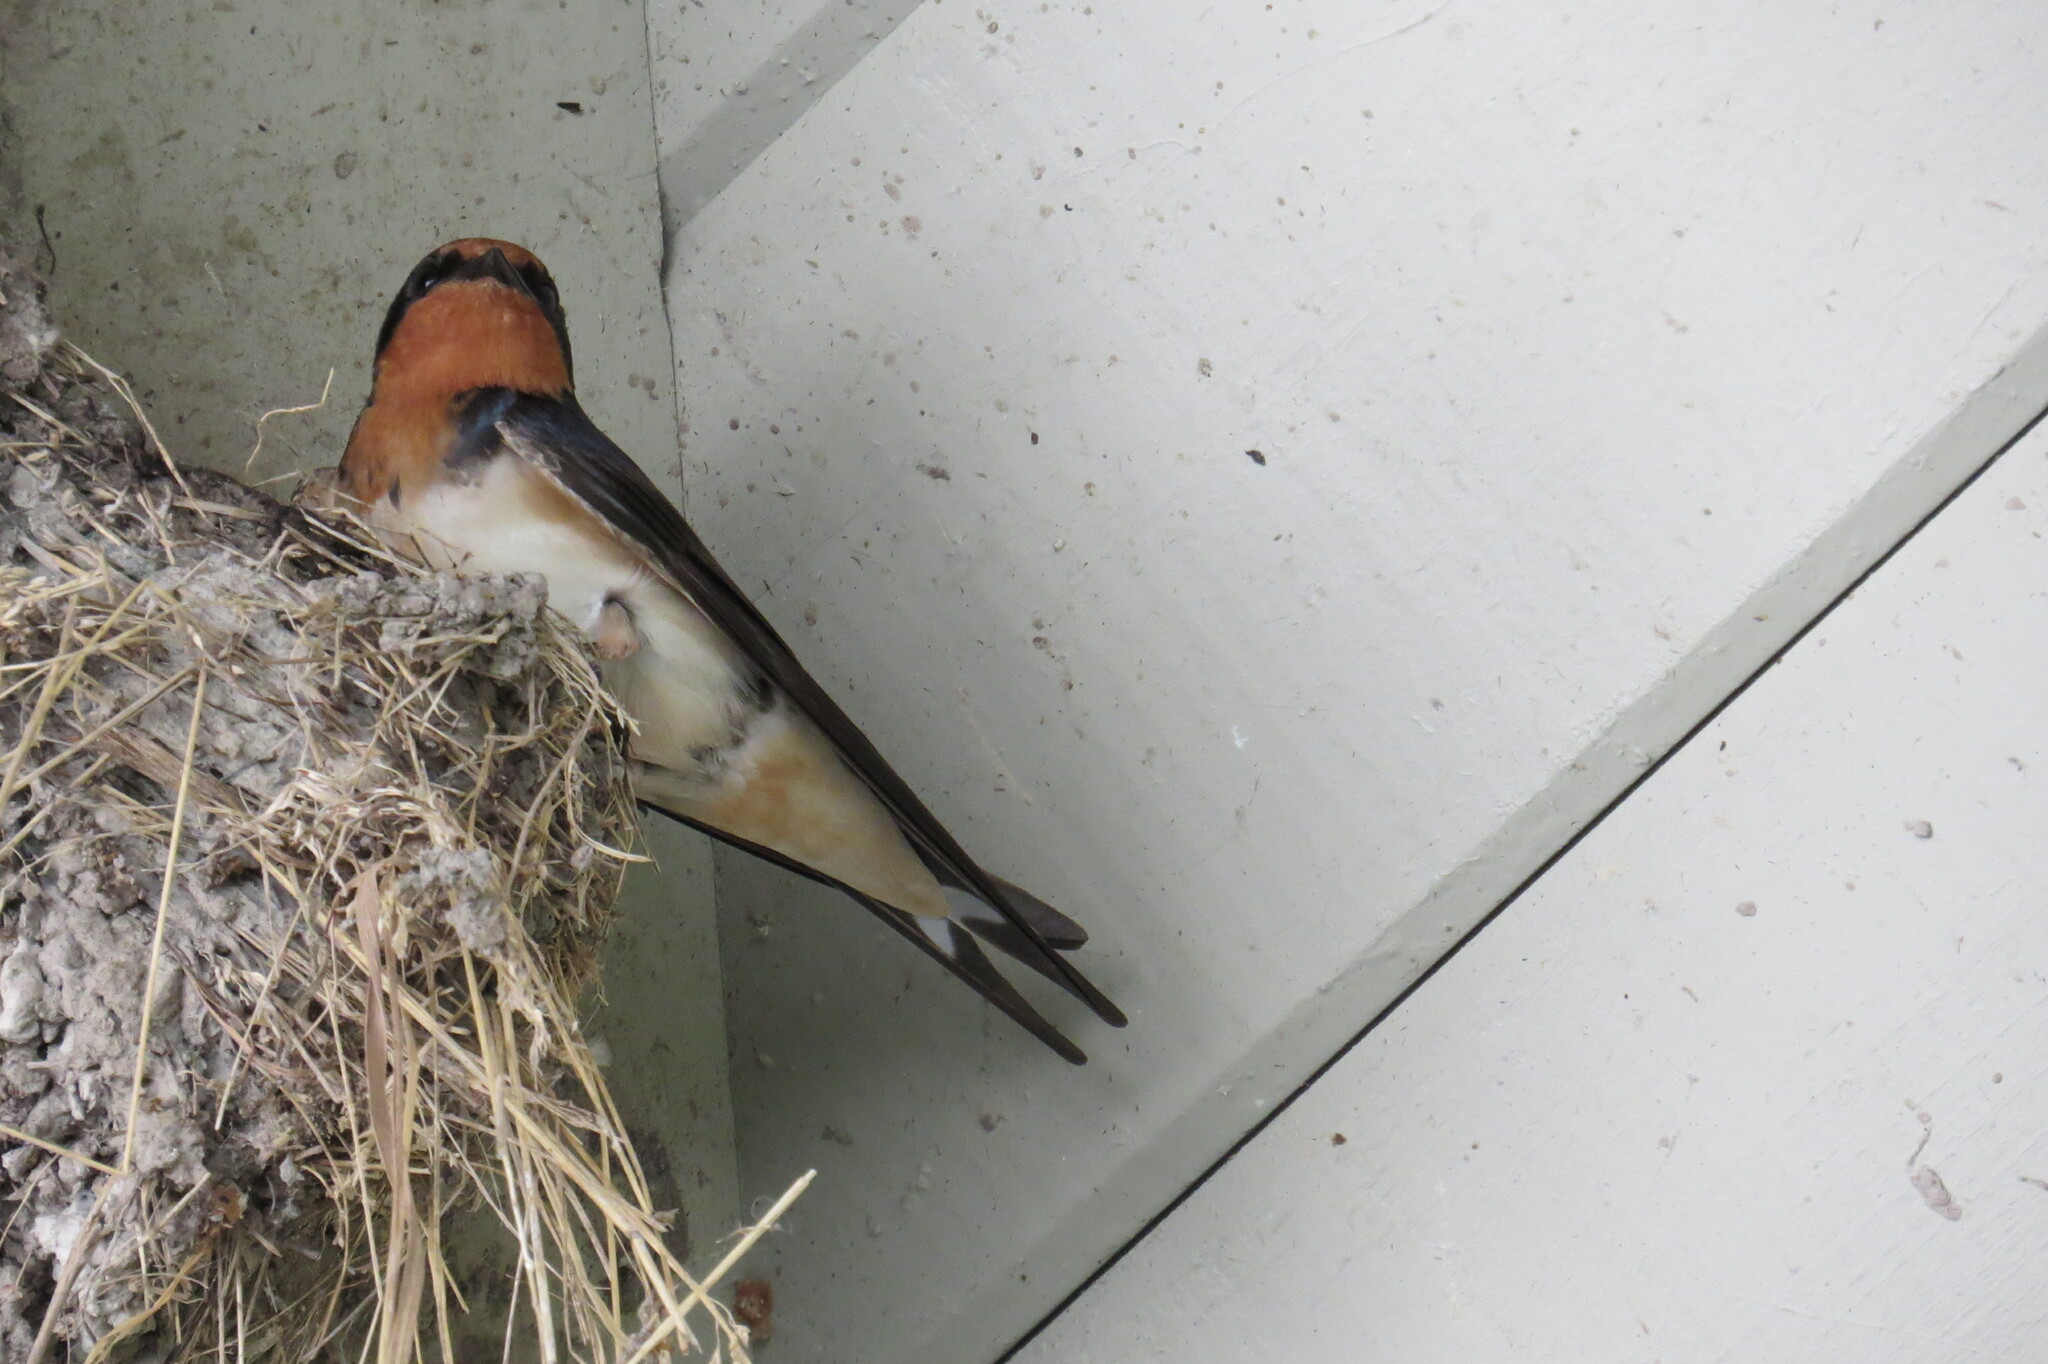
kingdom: Animalia
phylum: Chordata
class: Aves
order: Passeriformes
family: Hirundinidae
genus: Hirundo
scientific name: Hirundo rustica
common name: Barn swallow
